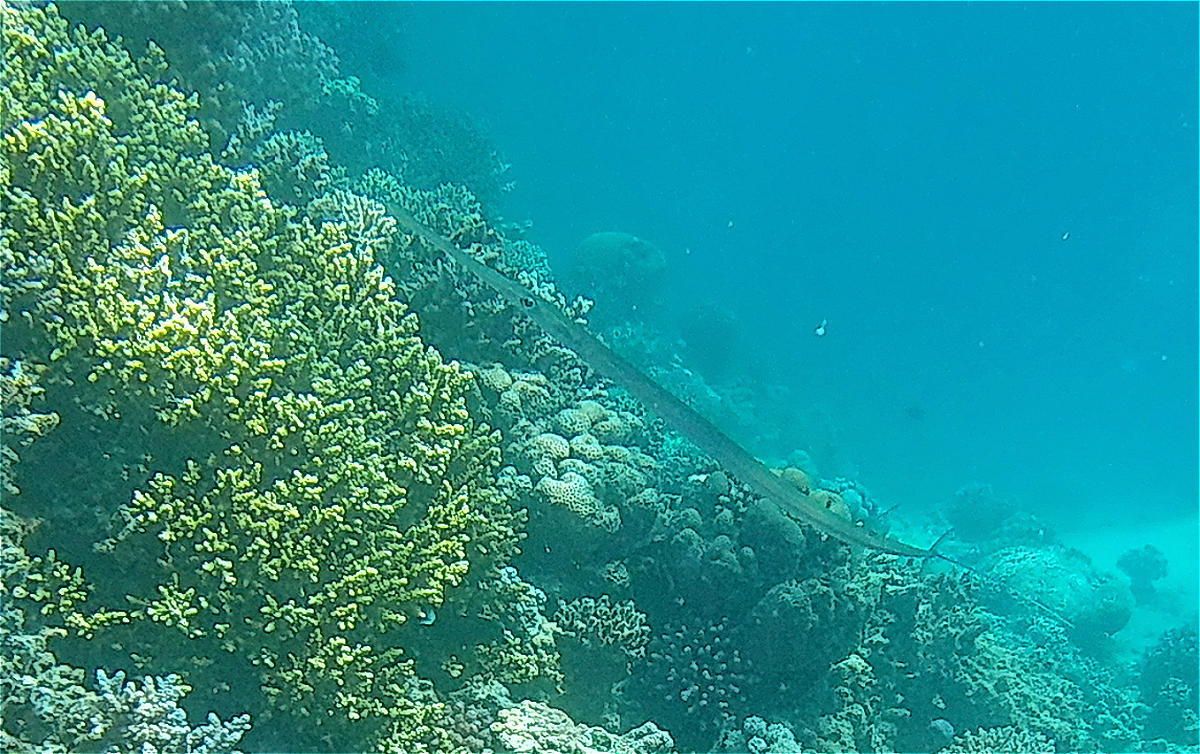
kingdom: Animalia
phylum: Chordata
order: Syngnathiformes
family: Fistulariidae
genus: Fistularia
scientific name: Fistularia commersonii
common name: Bluespotted cornetfish
